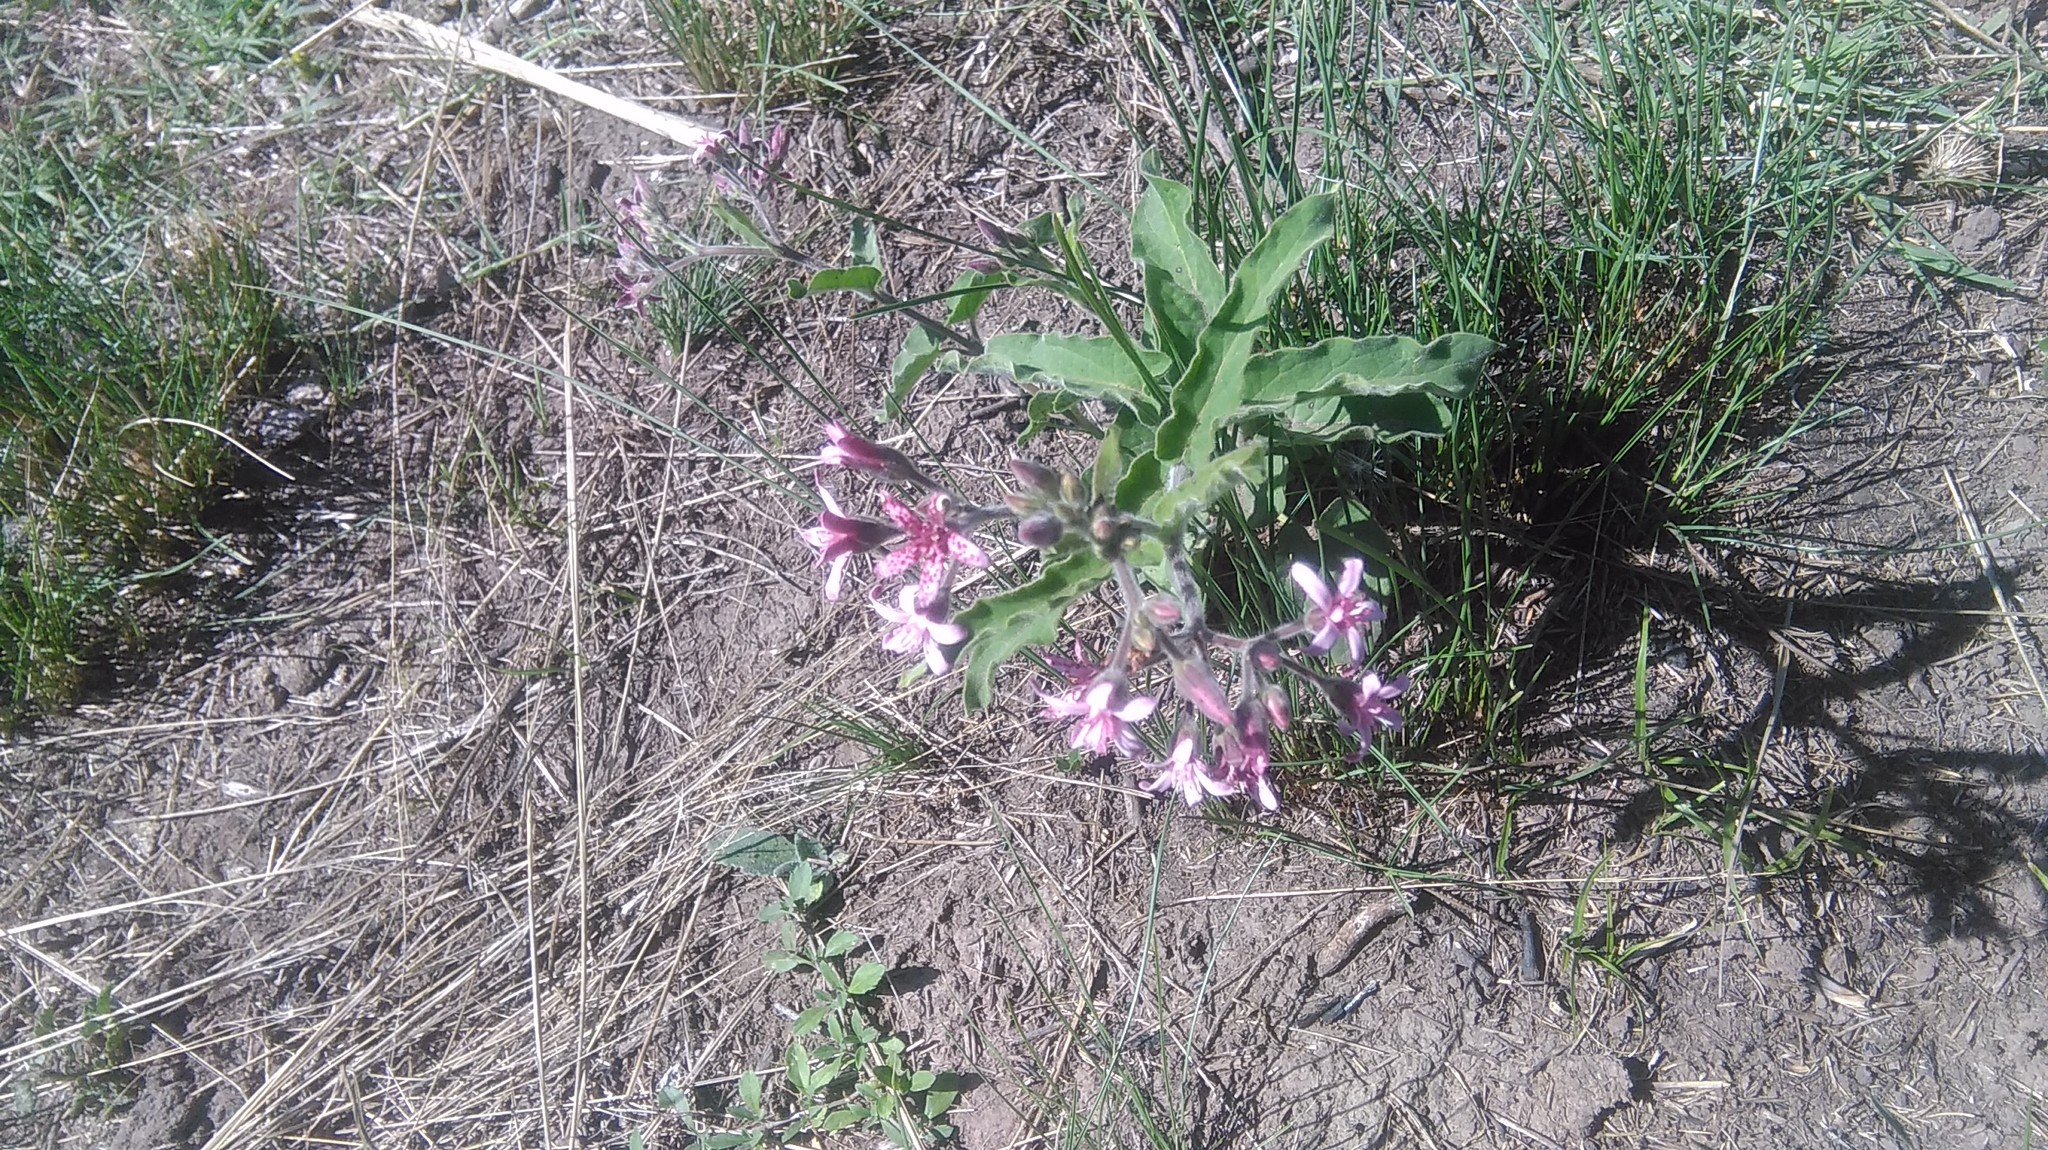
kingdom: Plantae
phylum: Tracheophyta
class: Magnoliopsida
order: Gentianales
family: Apocynaceae
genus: Oxypetalum
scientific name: Oxypetalum solanoides
